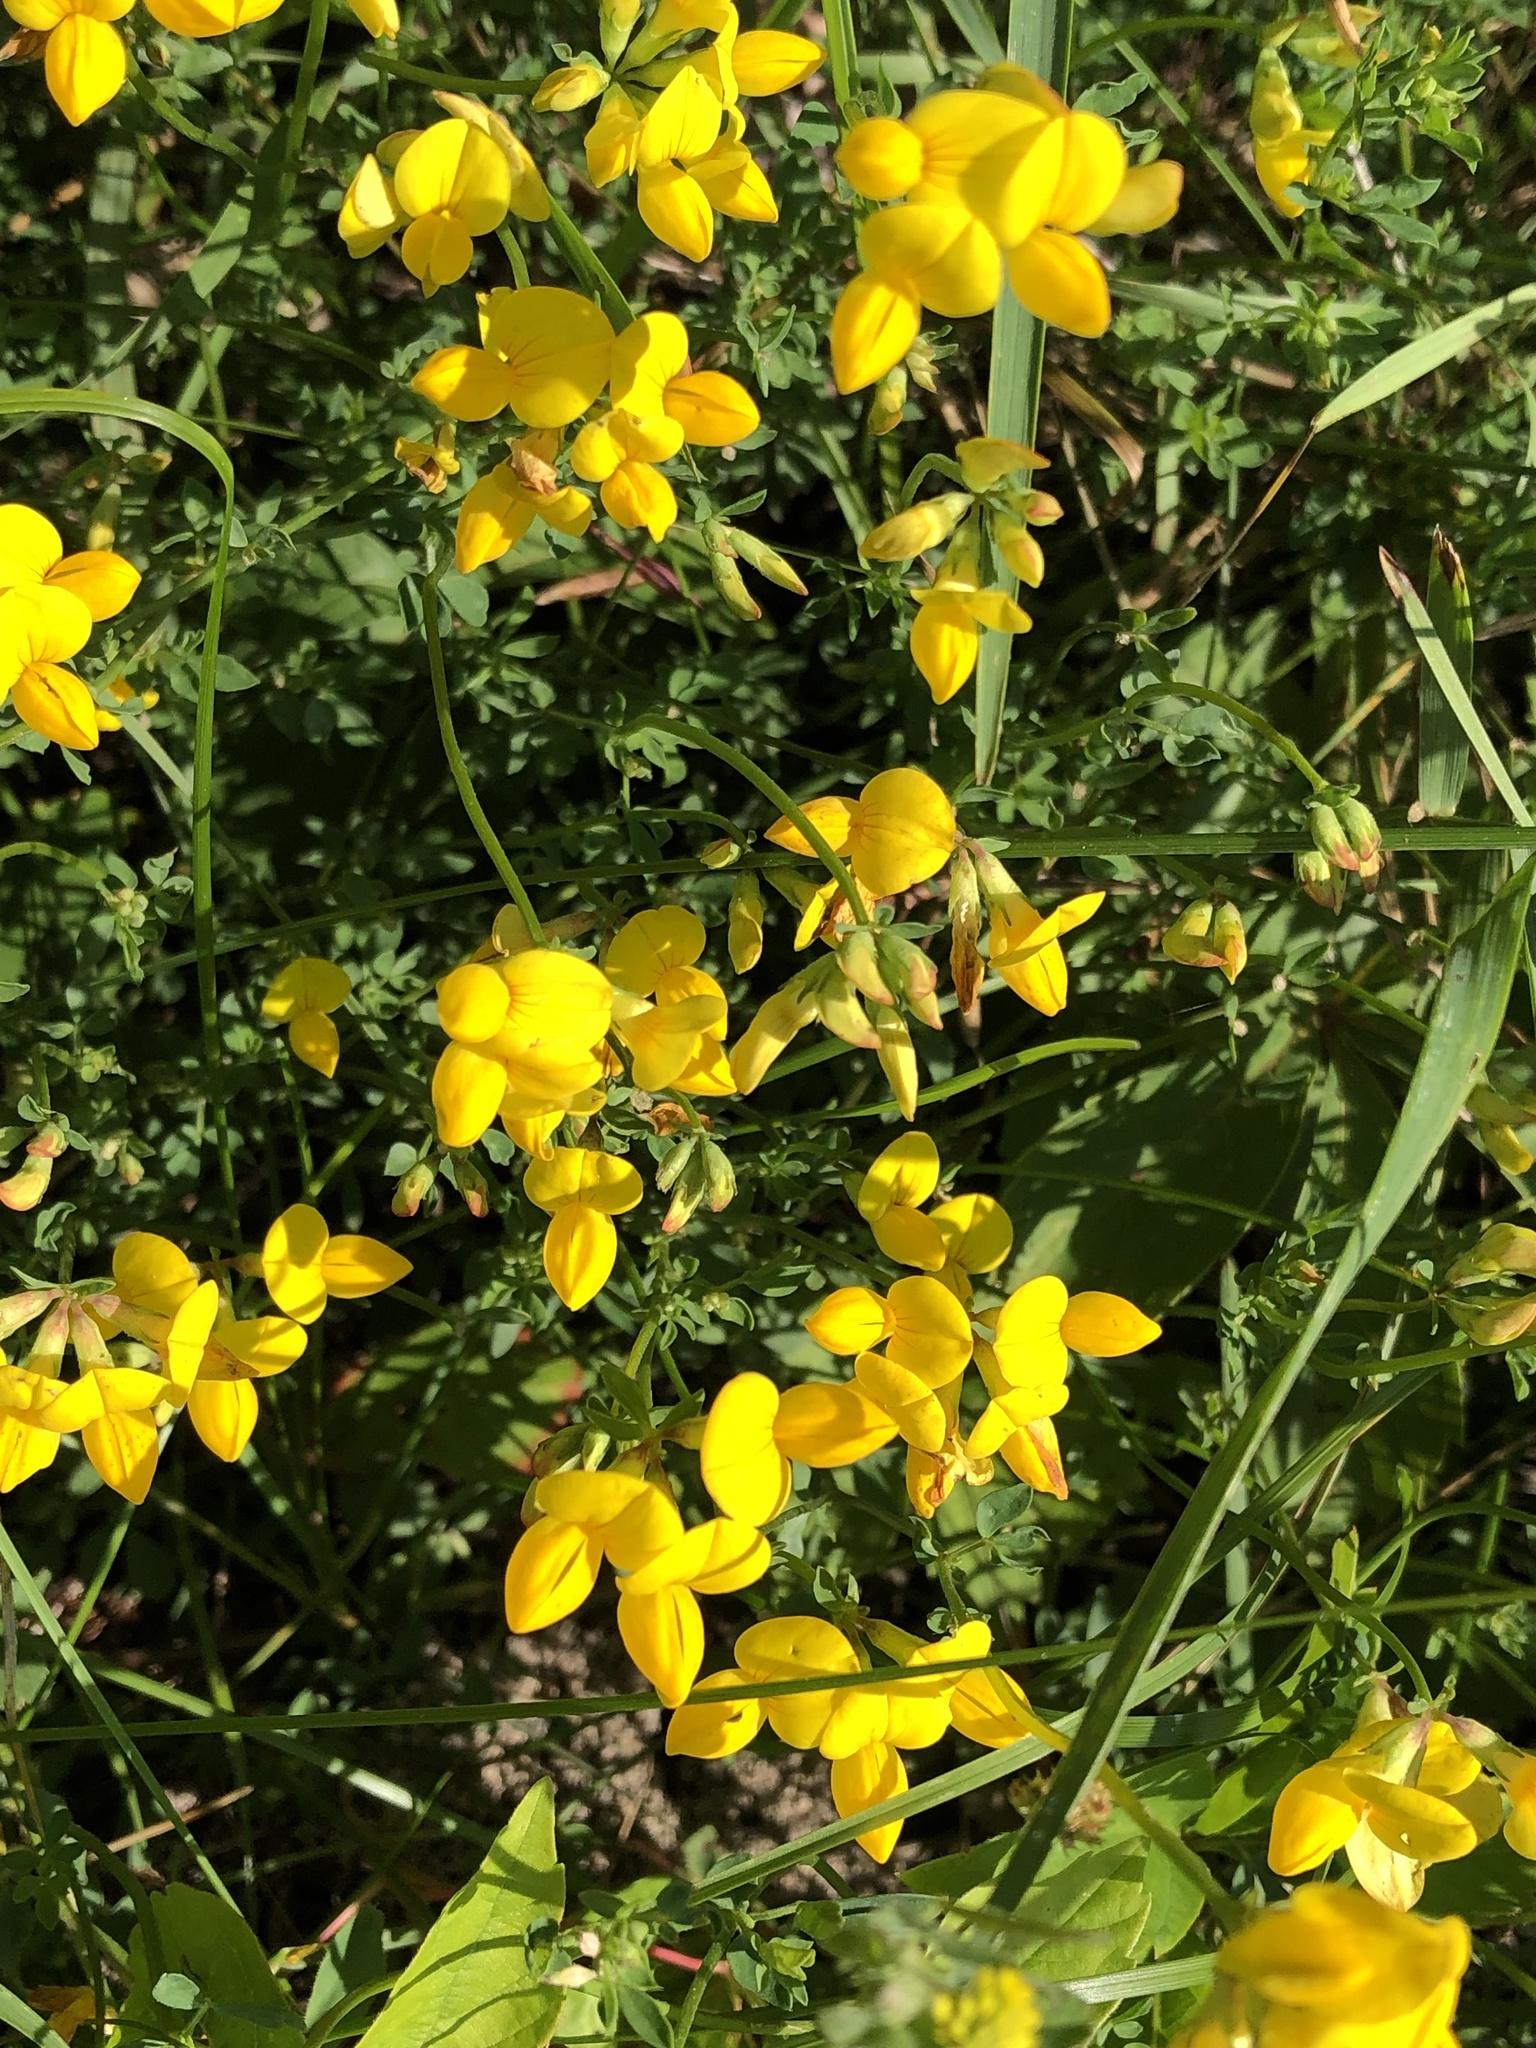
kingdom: Plantae
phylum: Tracheophyta
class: Magnoliopsida
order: Fabales
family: Fabaceae
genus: Lotus
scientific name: Lotus corniculatus
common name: Common bird's-foot-trefoil
